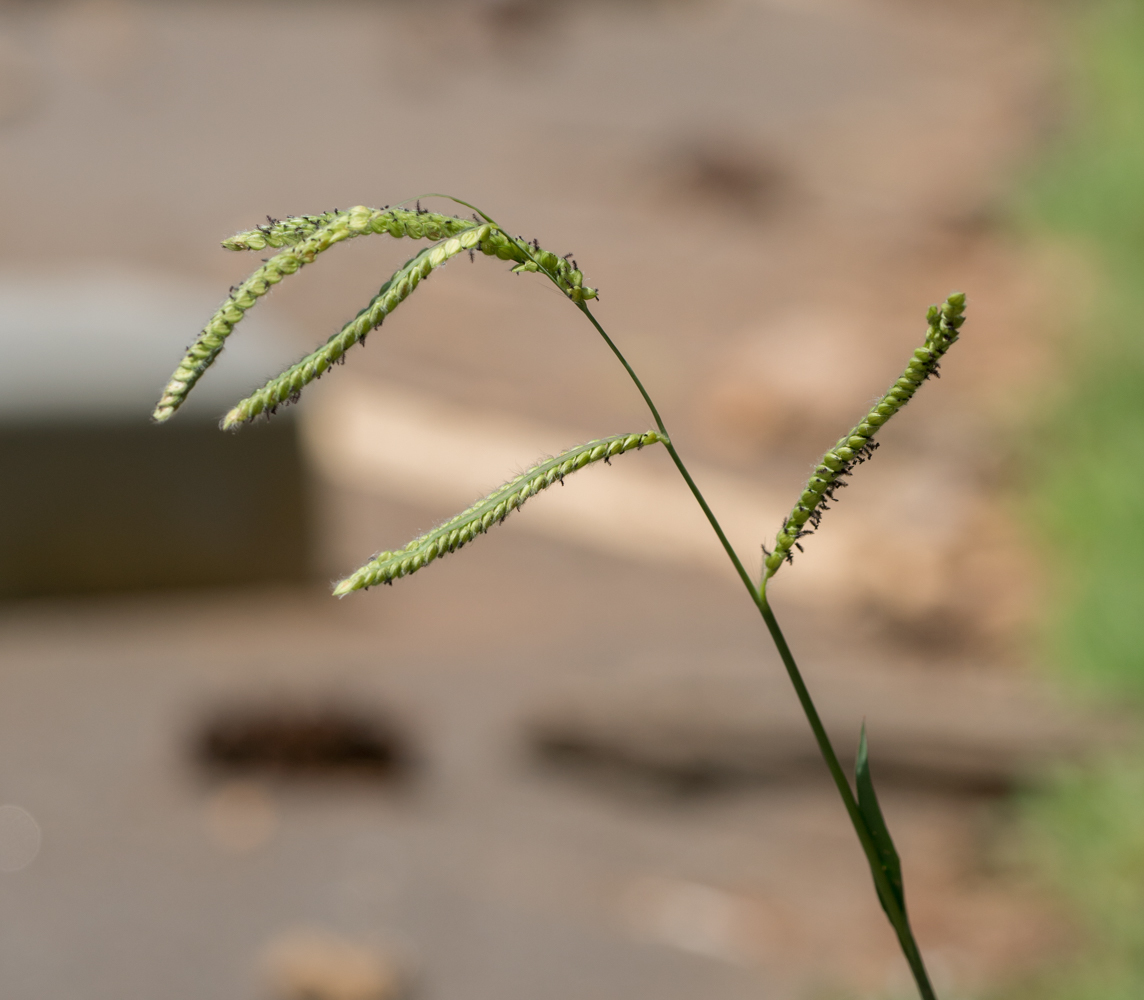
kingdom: Plantae
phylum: Tracheophyta
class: Liliopsida
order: Poales
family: Poaceae
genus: Paspalum
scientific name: Paspalum dilatatum
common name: Dallisgrass
